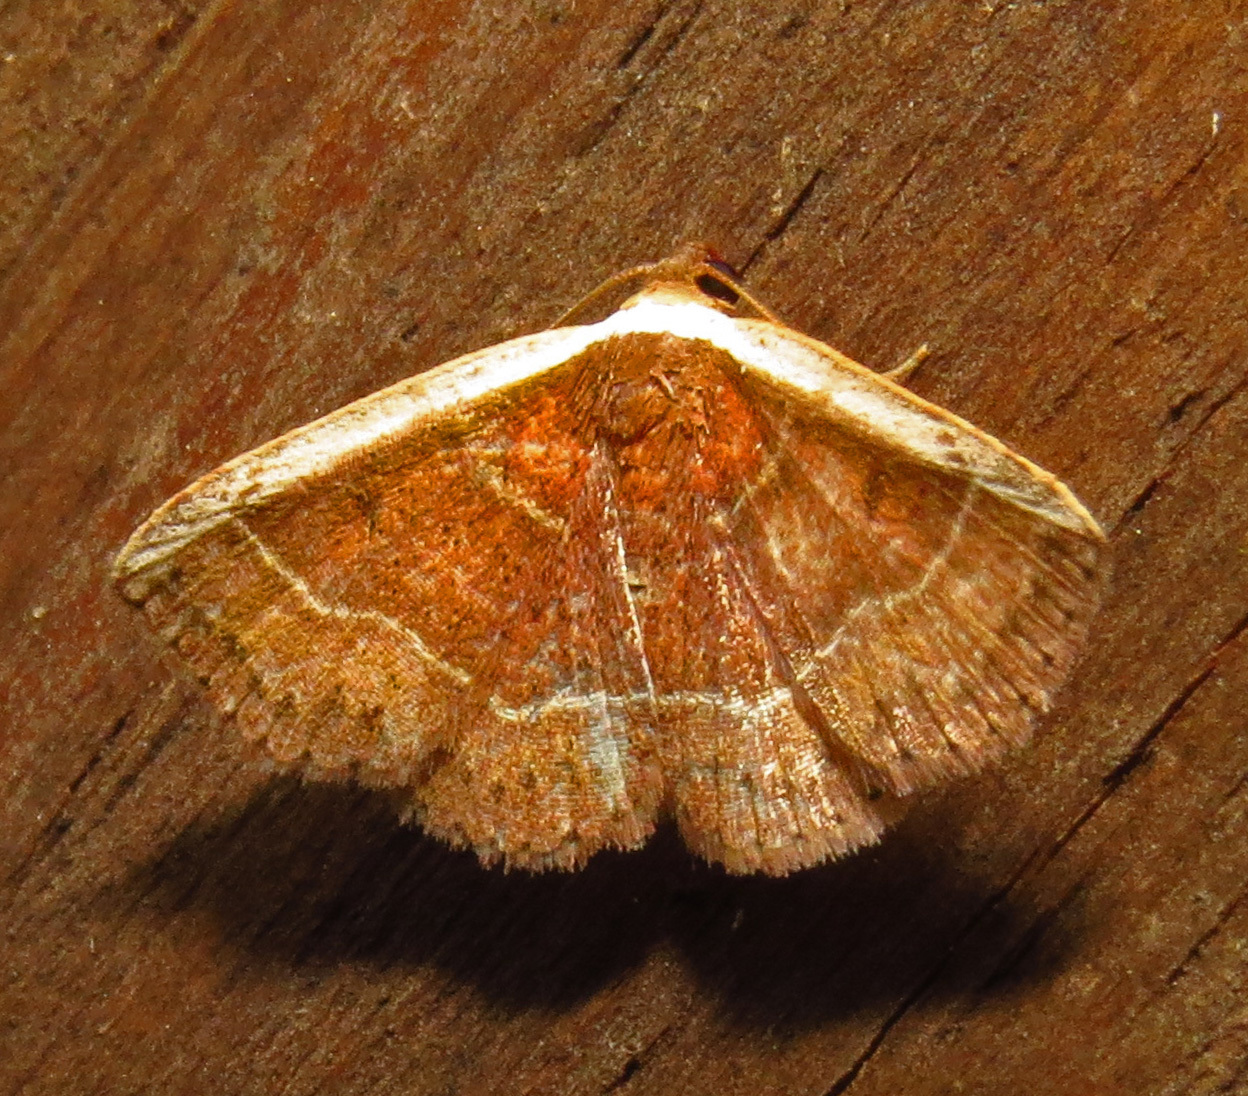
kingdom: Animalia
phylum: Arthropoda
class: Insecta
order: Lepidoptera
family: Noctuidae
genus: Ozarba
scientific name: Ozarba albocostaliata
